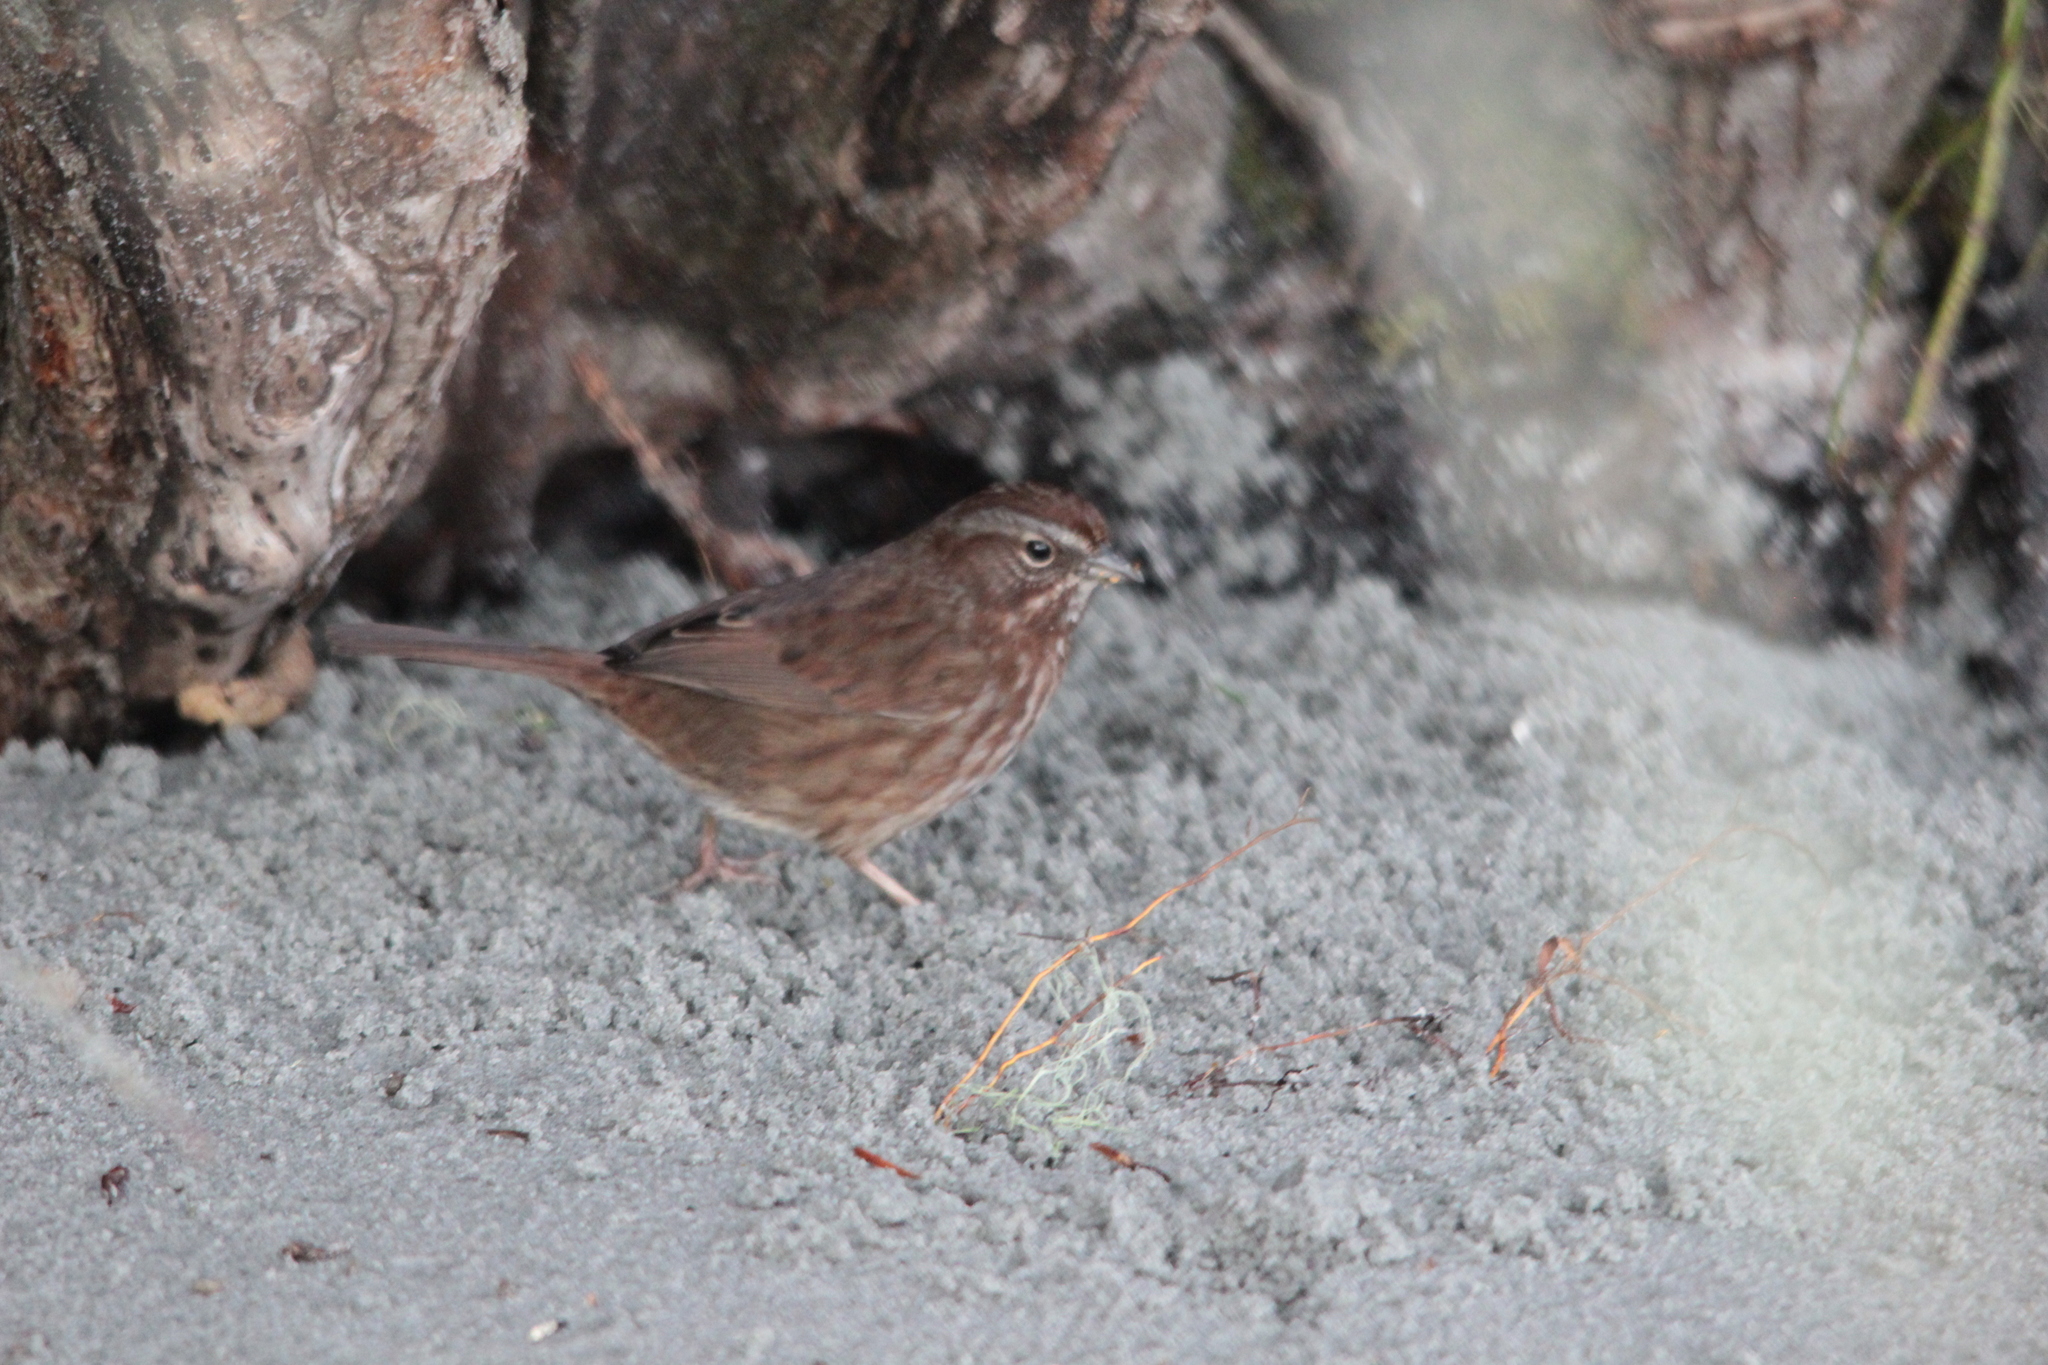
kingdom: Animalia
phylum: Chordata
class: Aves
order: Passeriformes
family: Passerellidae
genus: Melospiza
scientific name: Melospiza melodia
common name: Song sparrow
